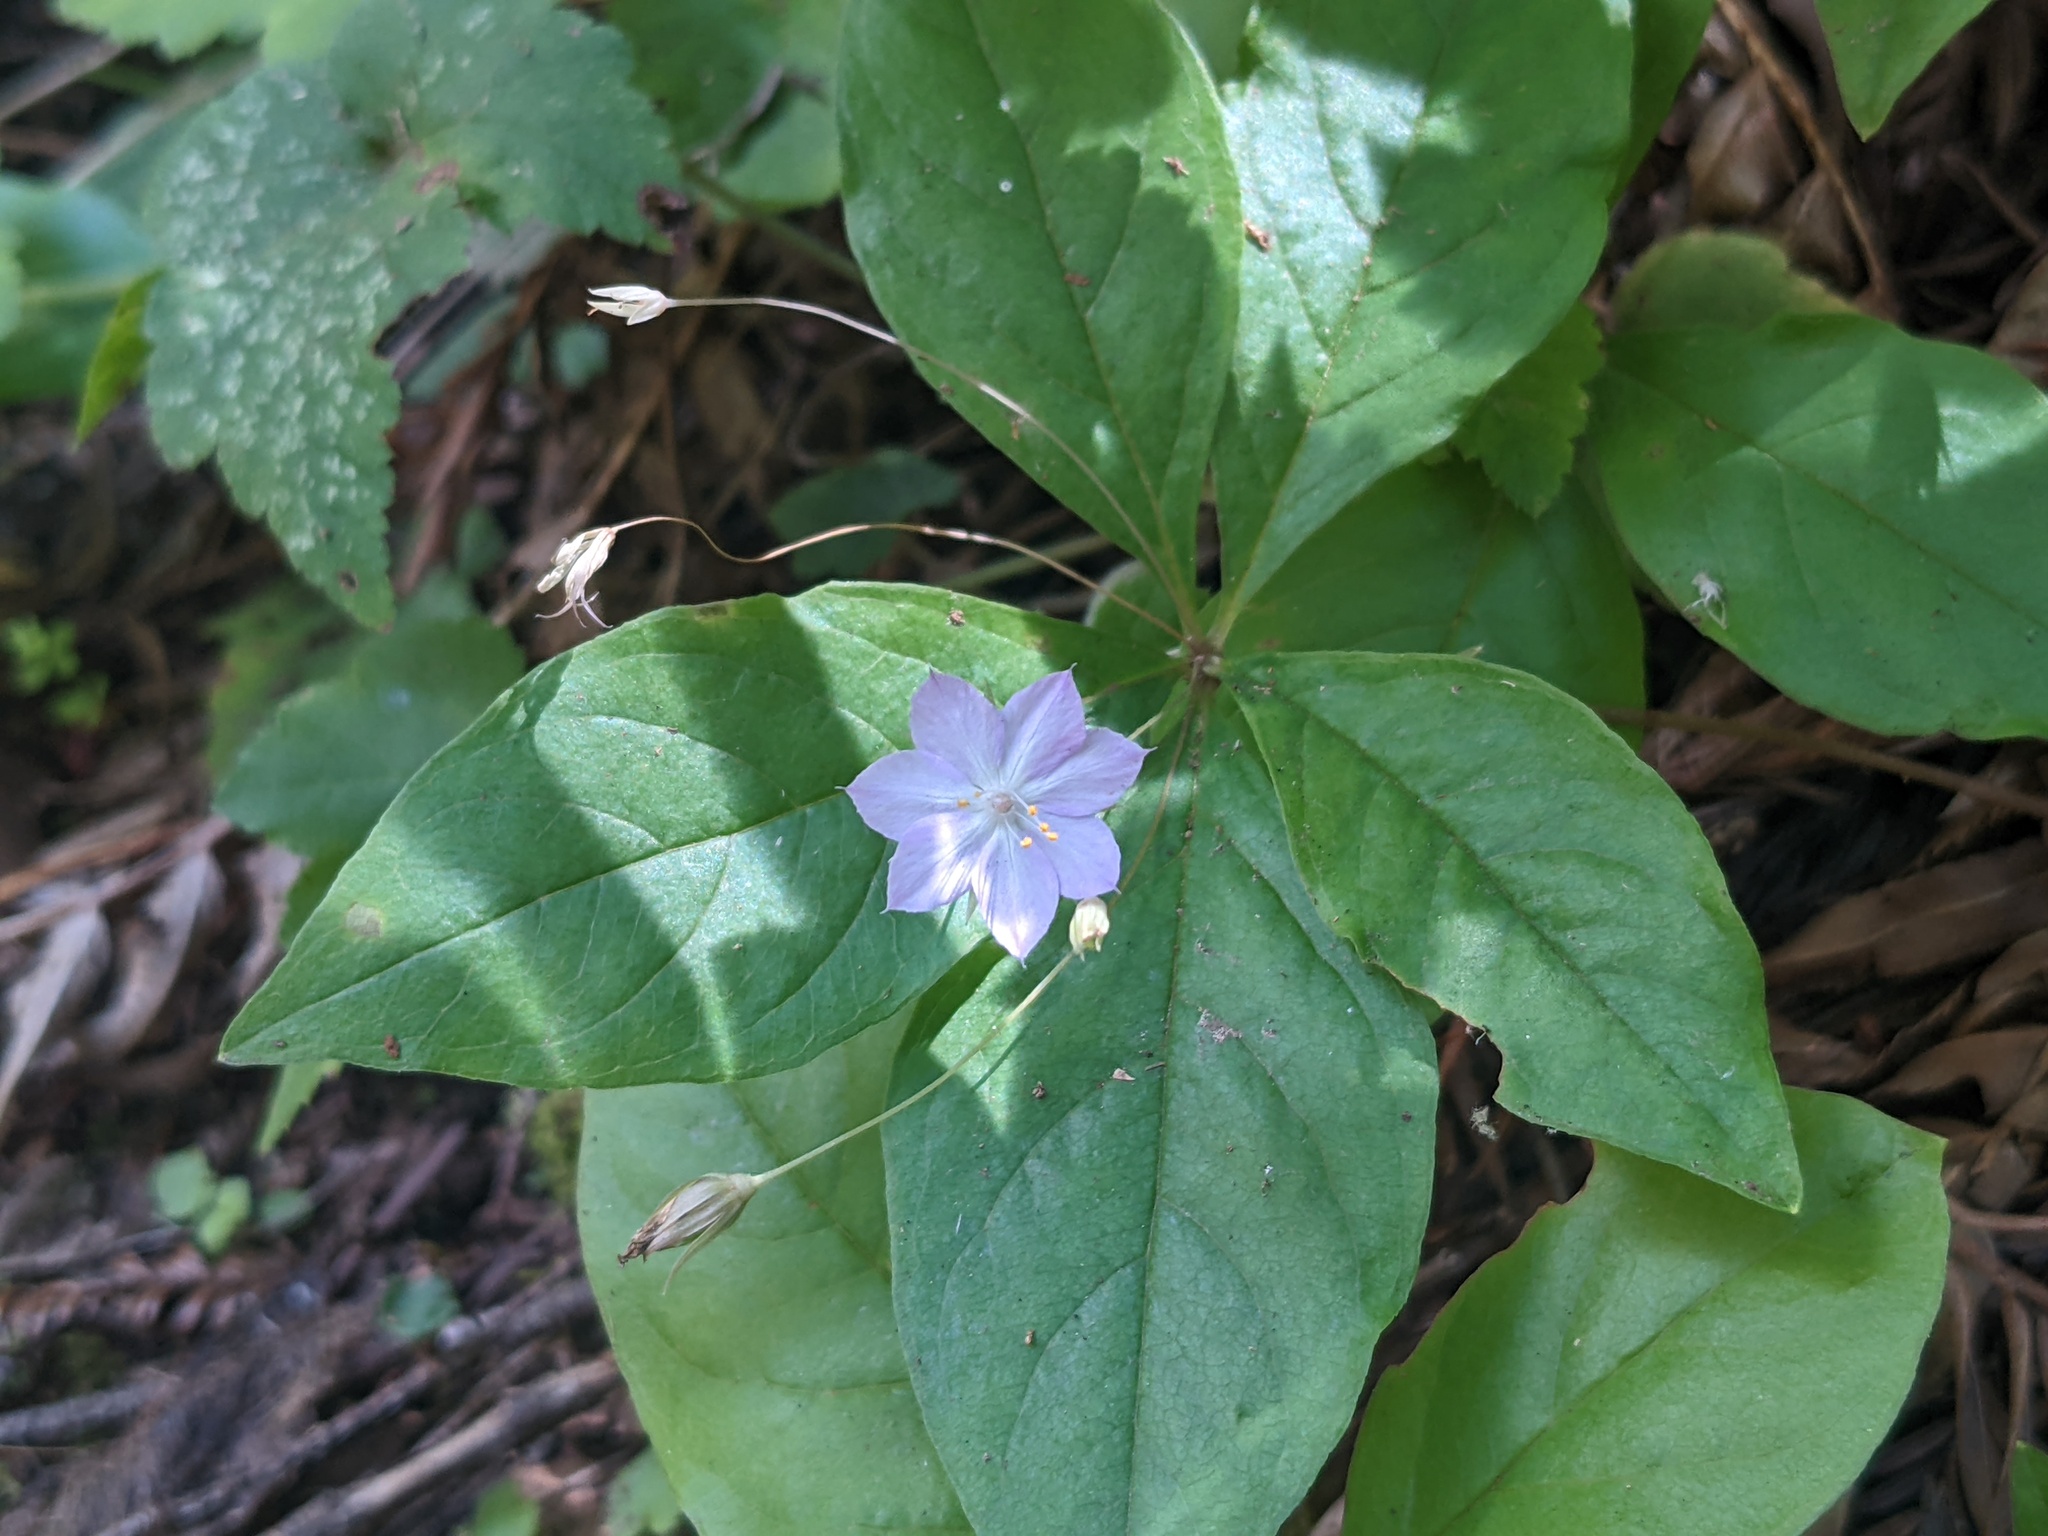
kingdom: Plantae
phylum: Tracheophyta
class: Magnoliopsida
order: Ericales
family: Primulaceae
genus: Lysimachia
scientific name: Lysimachia latifolia
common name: Pacific starflower
